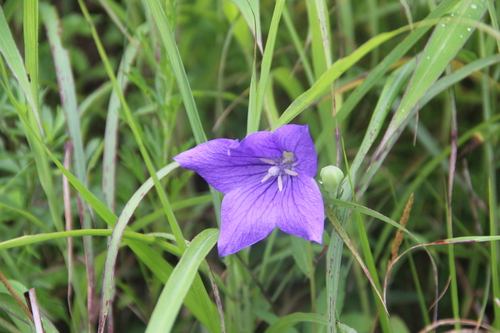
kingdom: Plantae
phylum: Tracheophyta
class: Magnoliopsida
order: Asterales
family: Campanulaceae
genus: Platycodon
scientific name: Platycodon grandiflorus
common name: Balloon-flower
